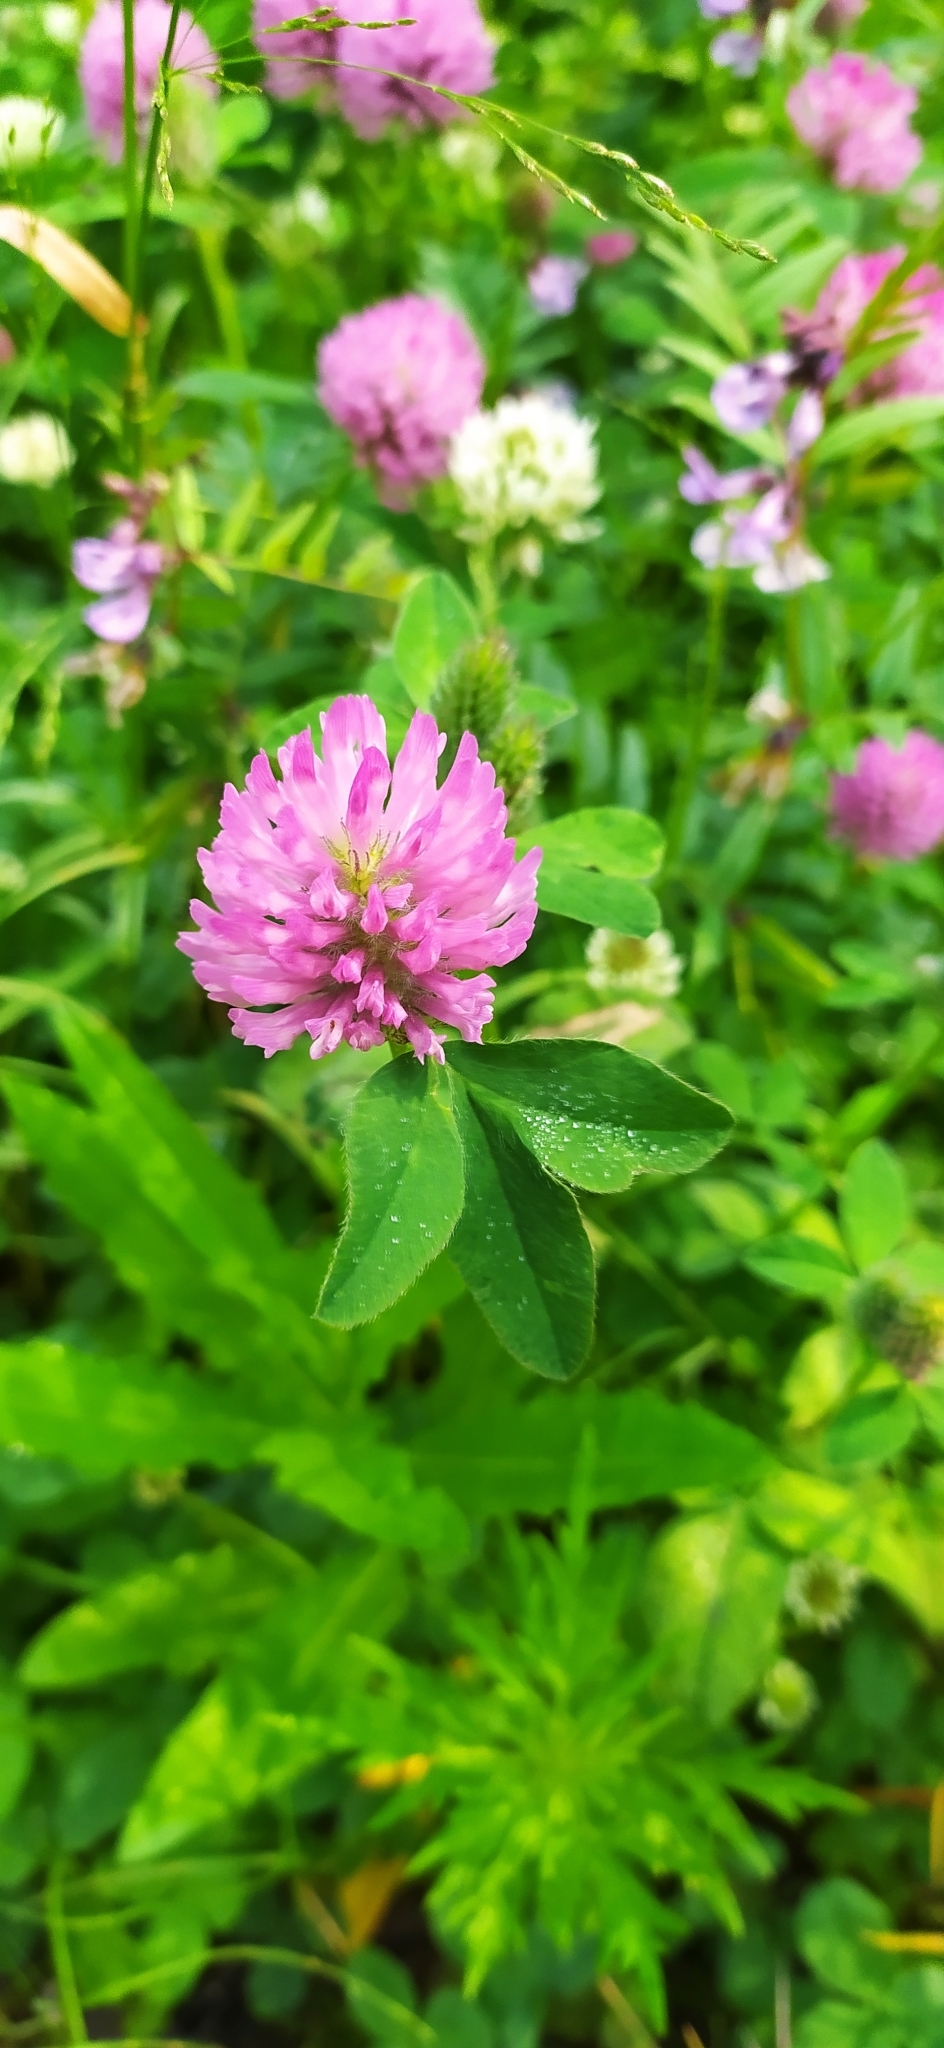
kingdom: Plantae
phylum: Tracheophyta
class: Magnoliopsida
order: Fabales
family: Fabaceae
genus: Trifolium
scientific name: Trifolium pratense
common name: Red clover
